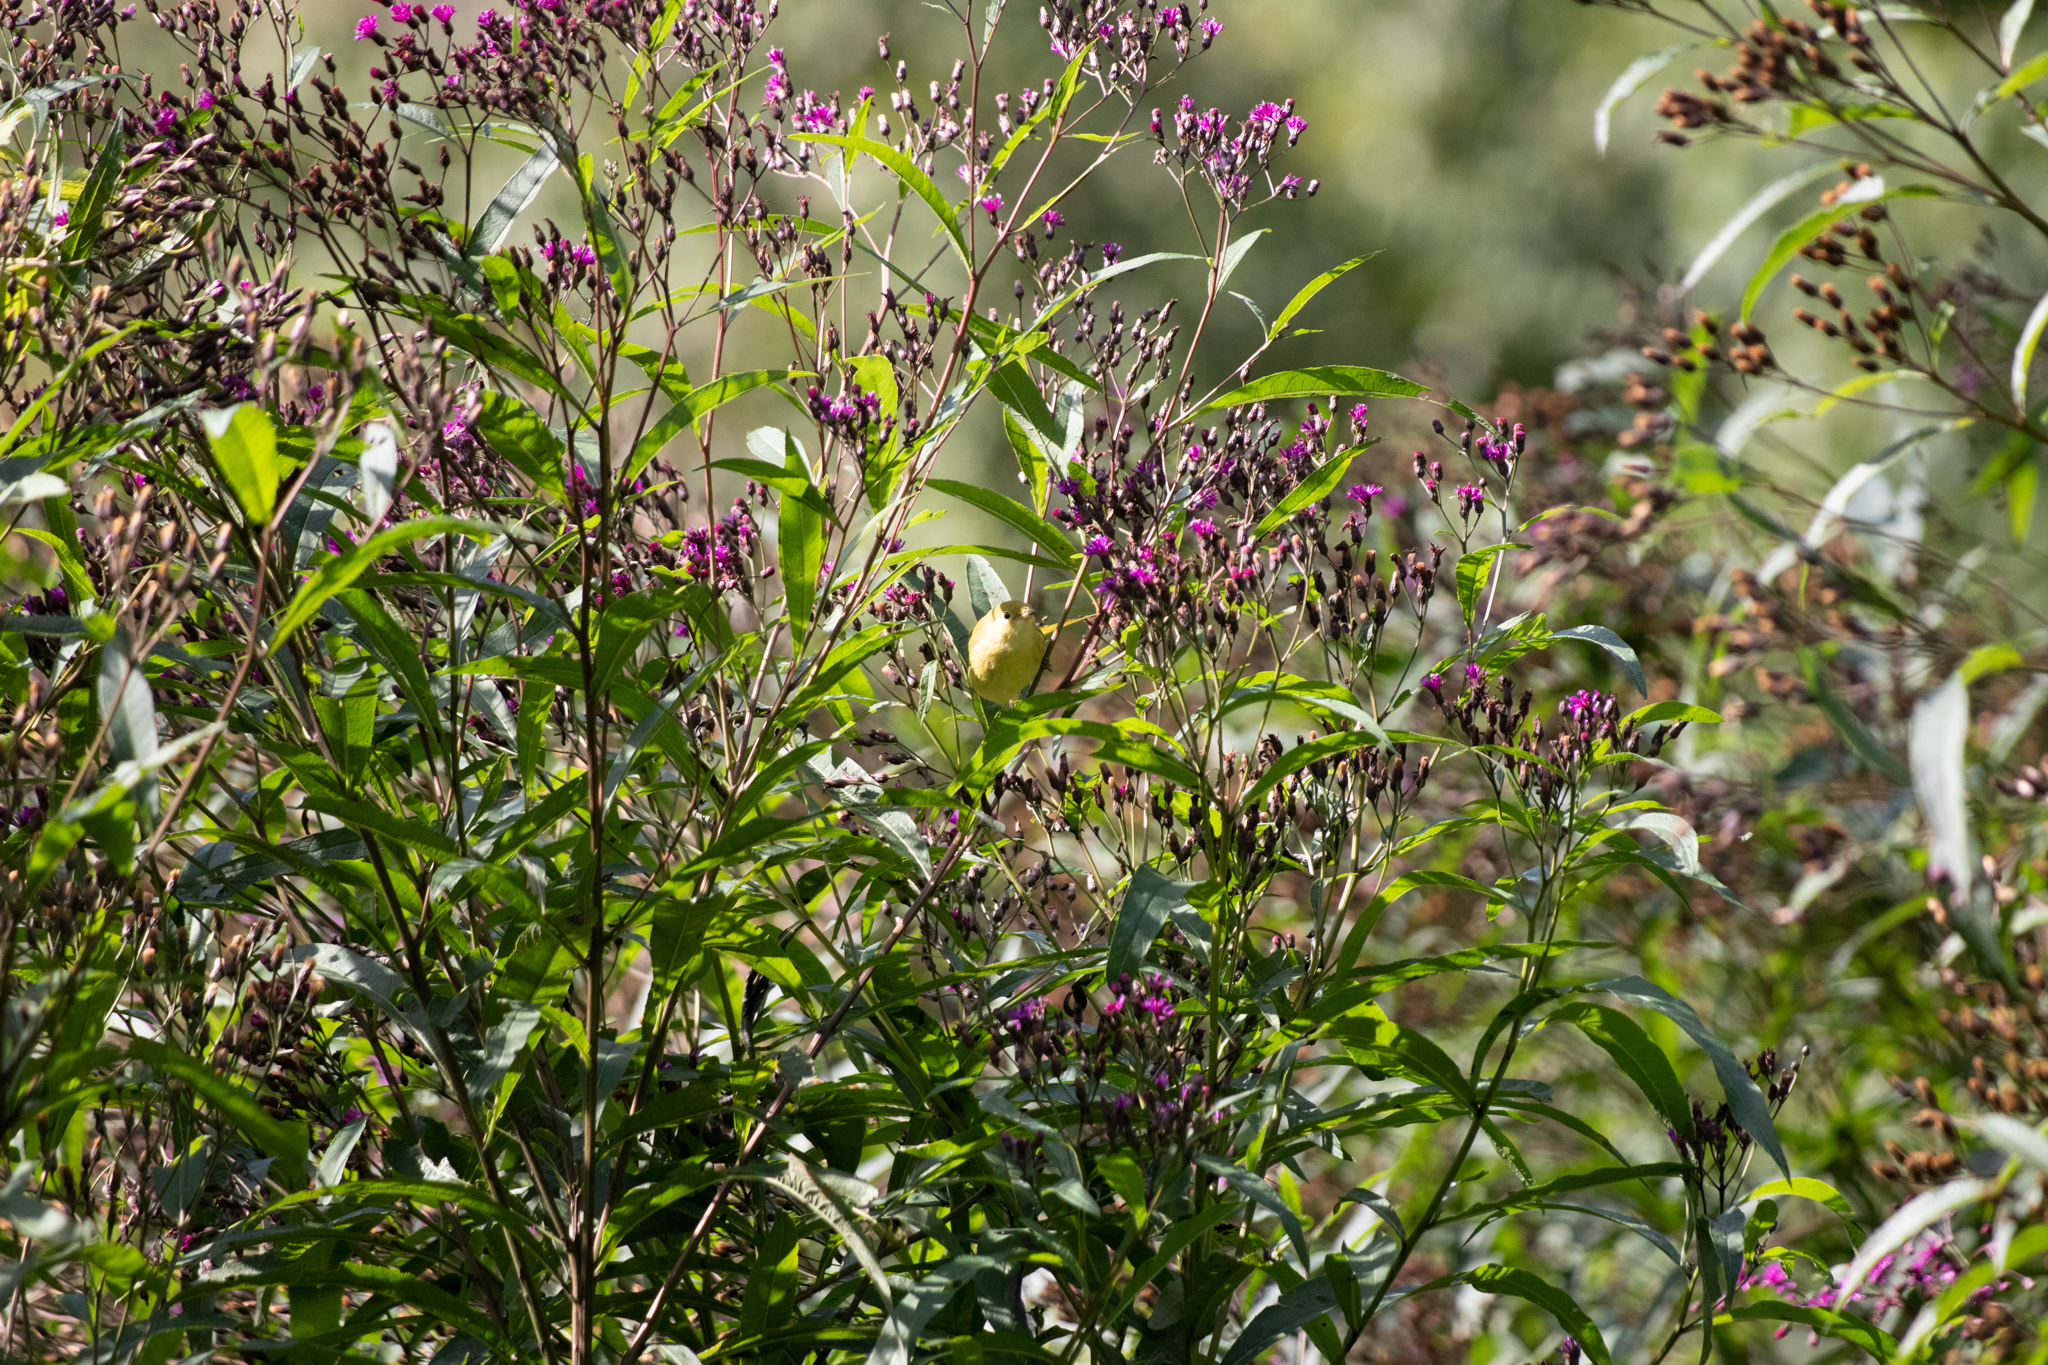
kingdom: Animalia
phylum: Chordata
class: Aves
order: Passeriformes
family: Parulidae
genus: Setophaga
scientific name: Setophaga discolor
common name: Prairie warbler
